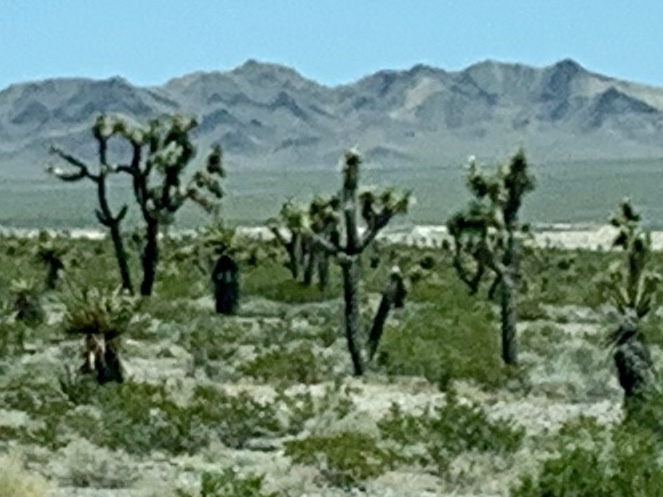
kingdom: Plantae
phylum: Tracheophyta
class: Liliopsida
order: Asparagales
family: Asparagaceae
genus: Yucca
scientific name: Yucca brevifolia
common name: Joshua tree
